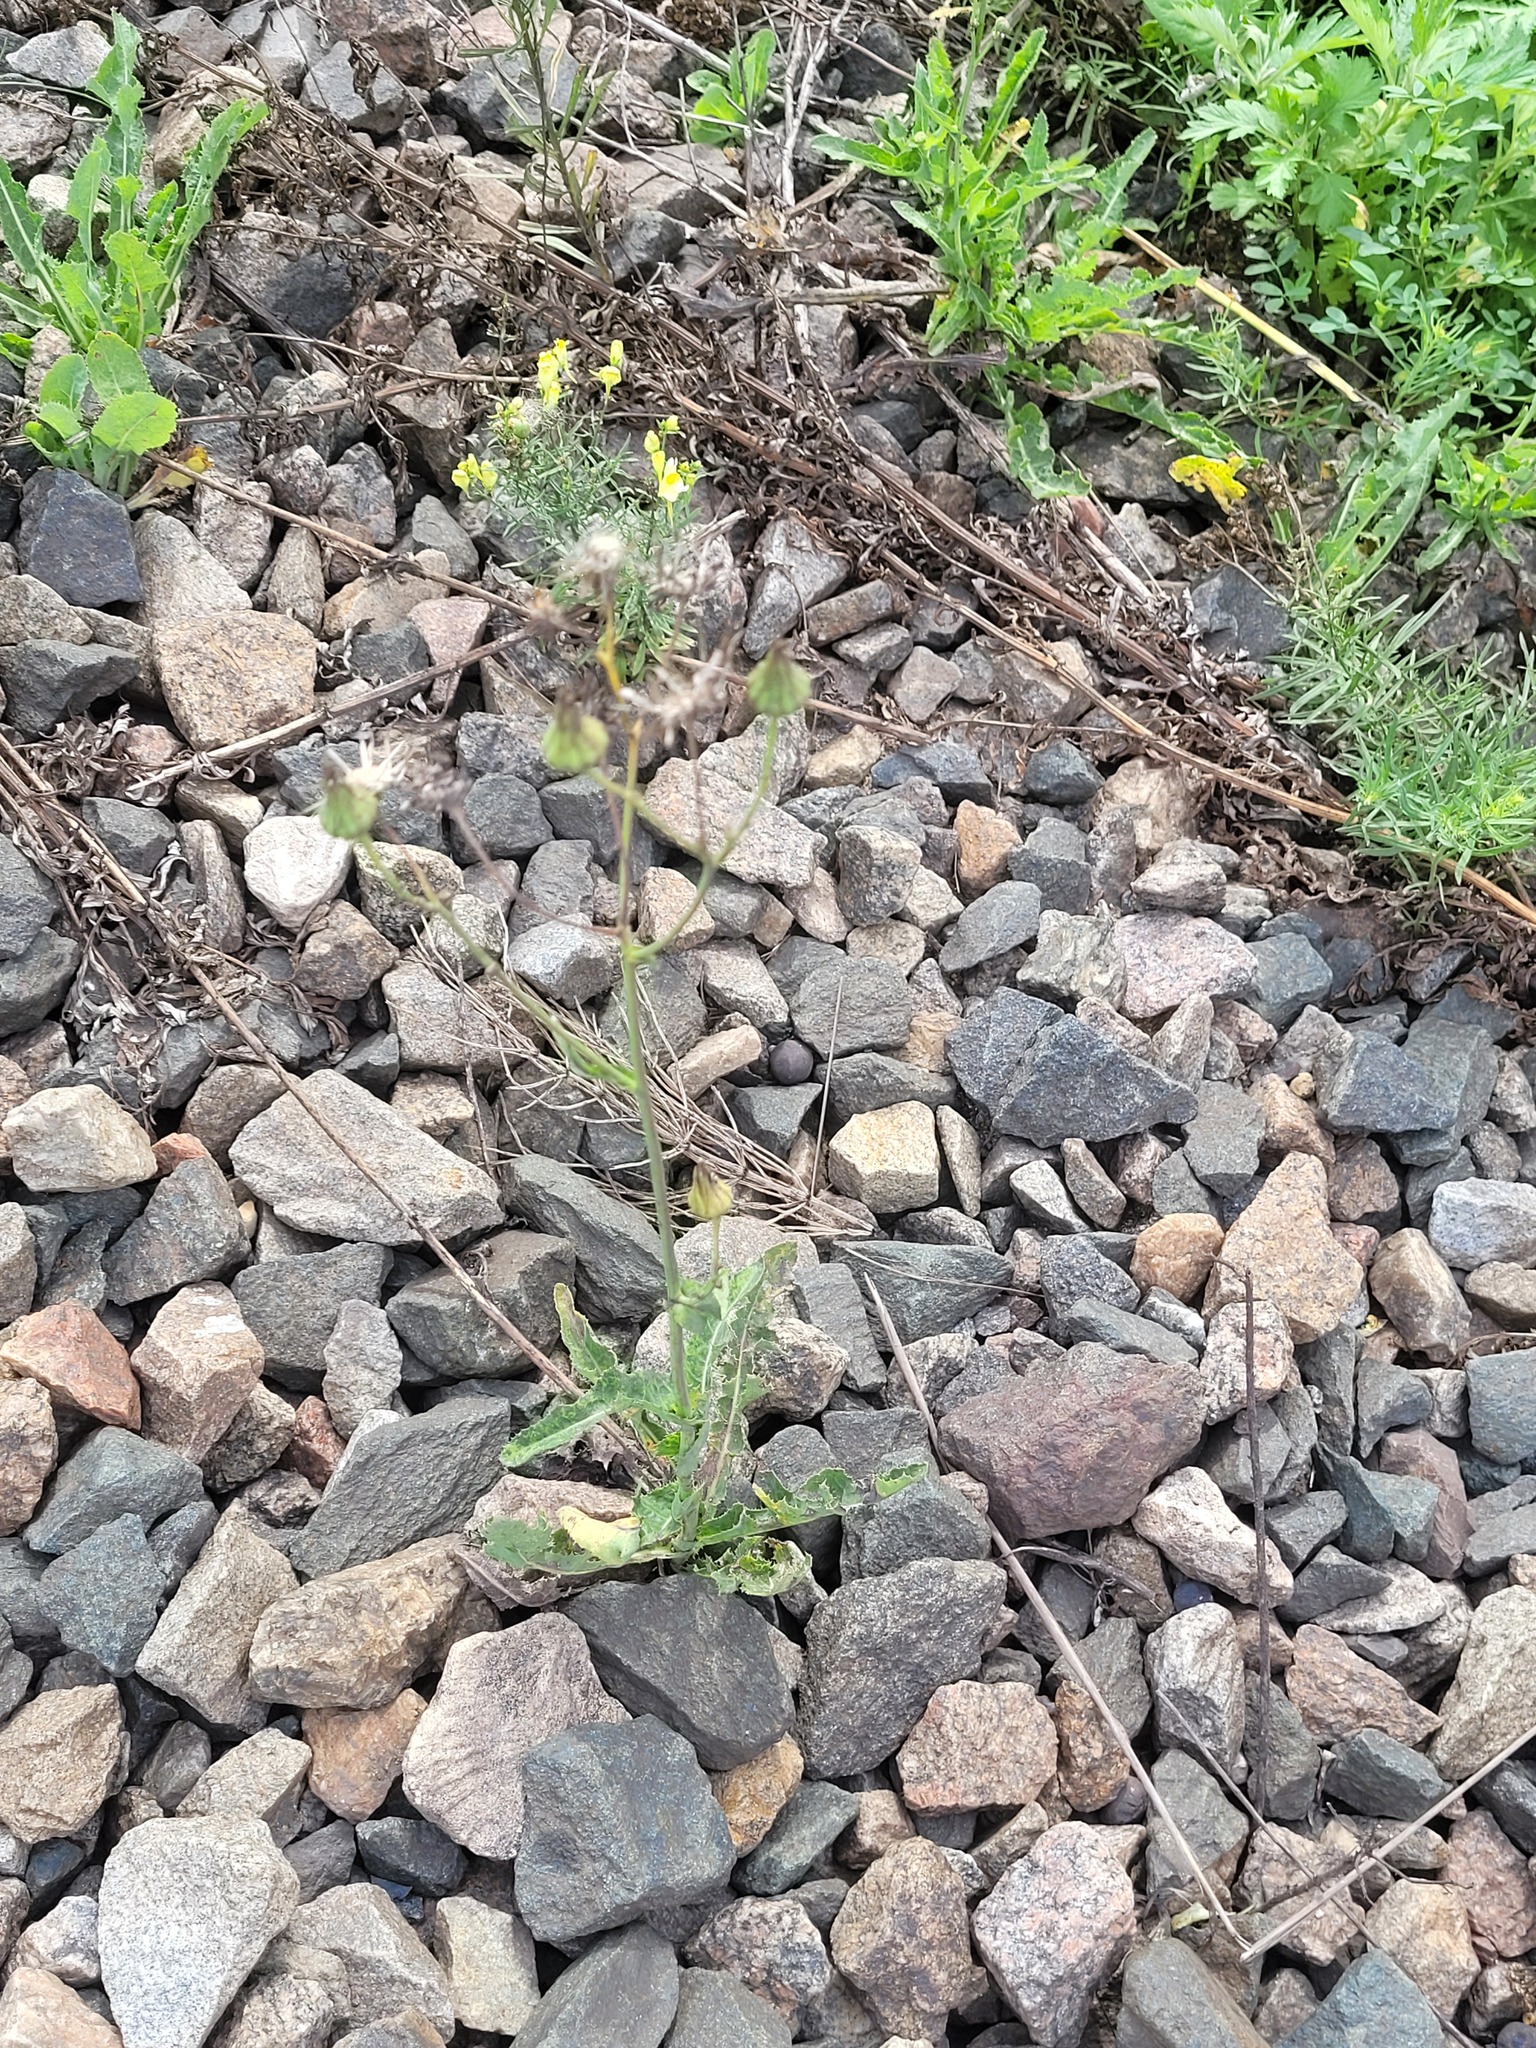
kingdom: Plantae
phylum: Tracheophyta
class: Magnoliopsida
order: Asterales
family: Asteraceae
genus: Sonchus
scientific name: Sonchus arvensis
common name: Perennial sow-thistle
